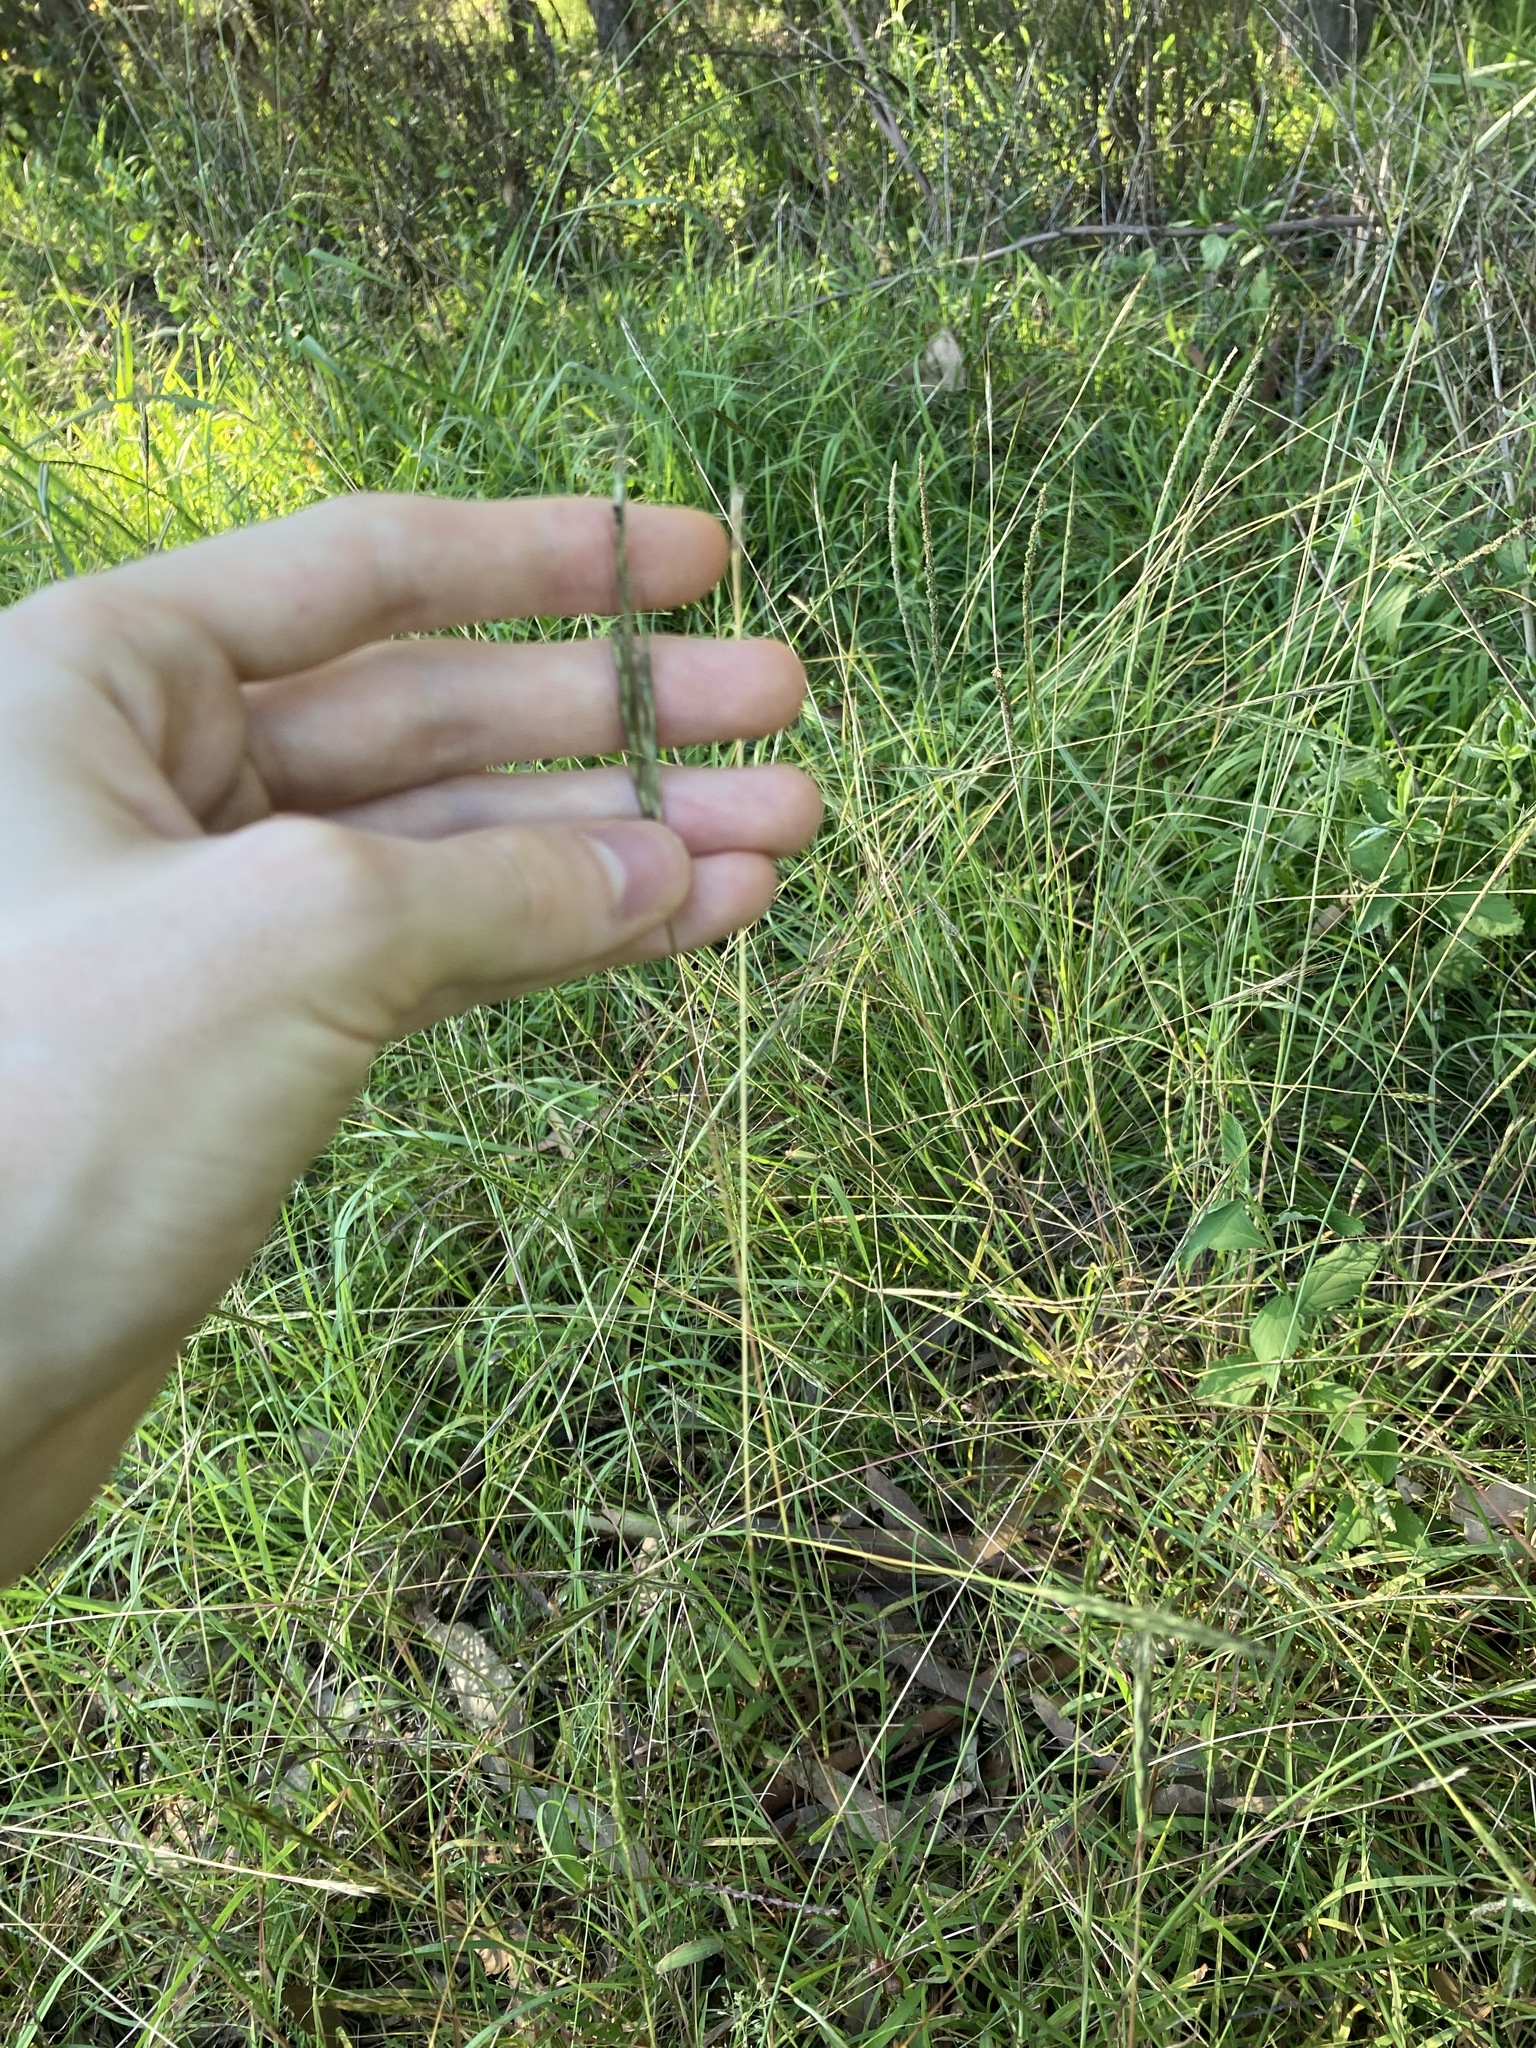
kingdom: Plantae
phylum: Tracheophyta
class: Liliopsida
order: Poales
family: Poaceae
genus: Bothriochloa
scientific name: Bothriochloa macra
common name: Pitted beard grass
